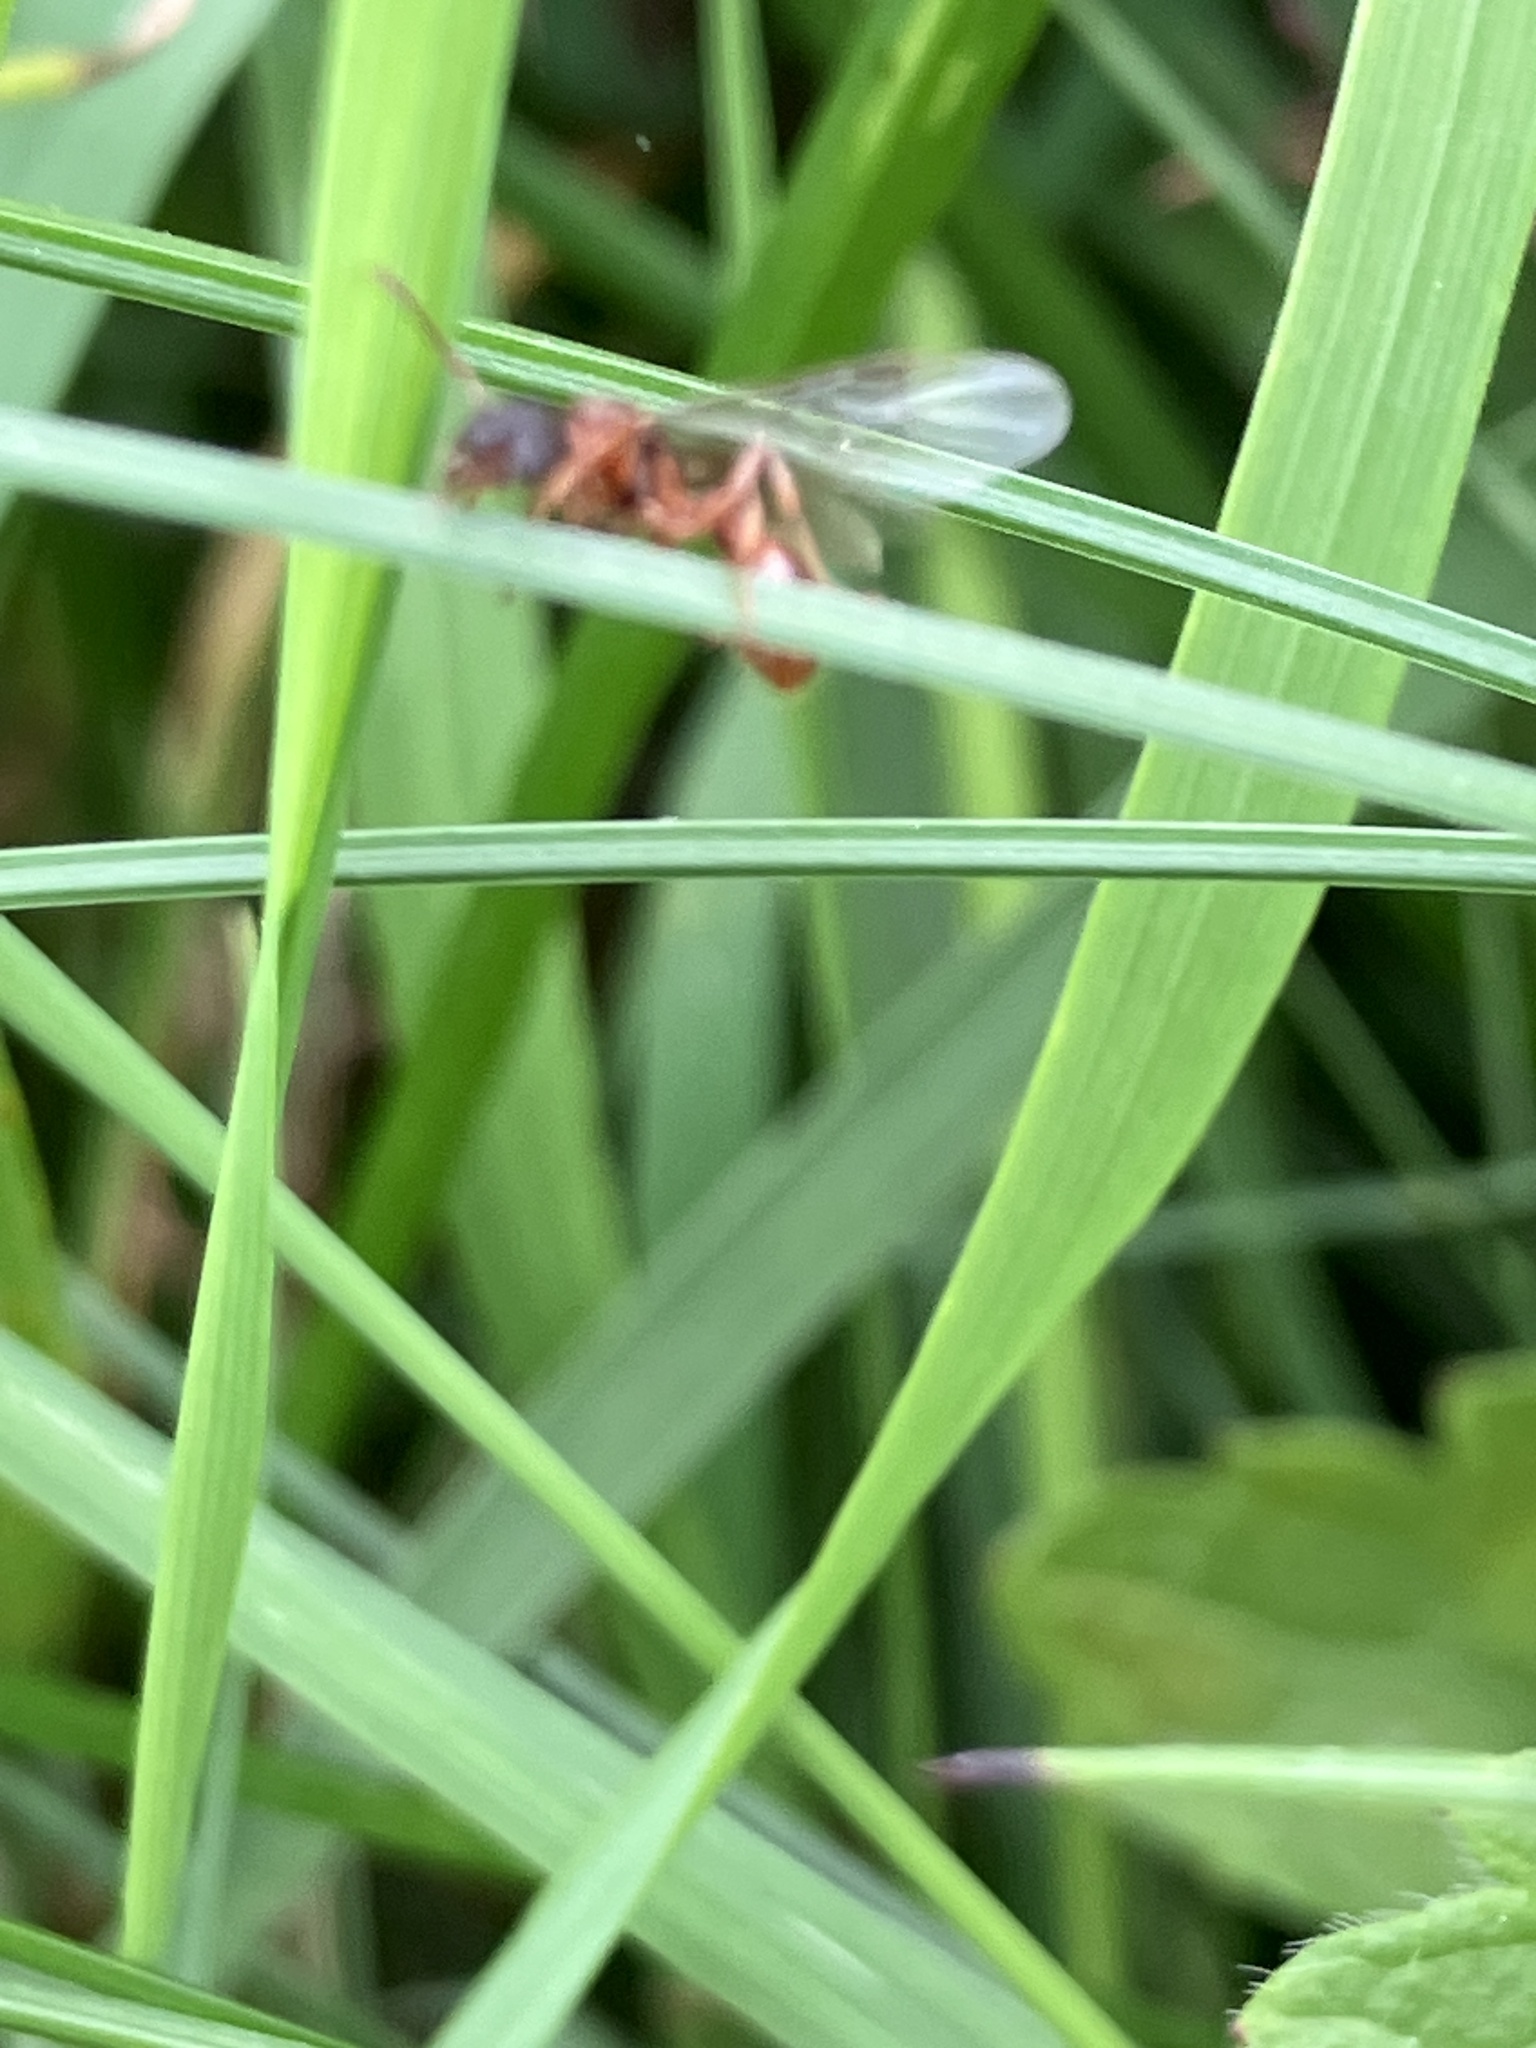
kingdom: Animalia
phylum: Arthropoda
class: Insecta
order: Hymenoptera
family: Formicidae
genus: Myrmica
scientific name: Myrmica
